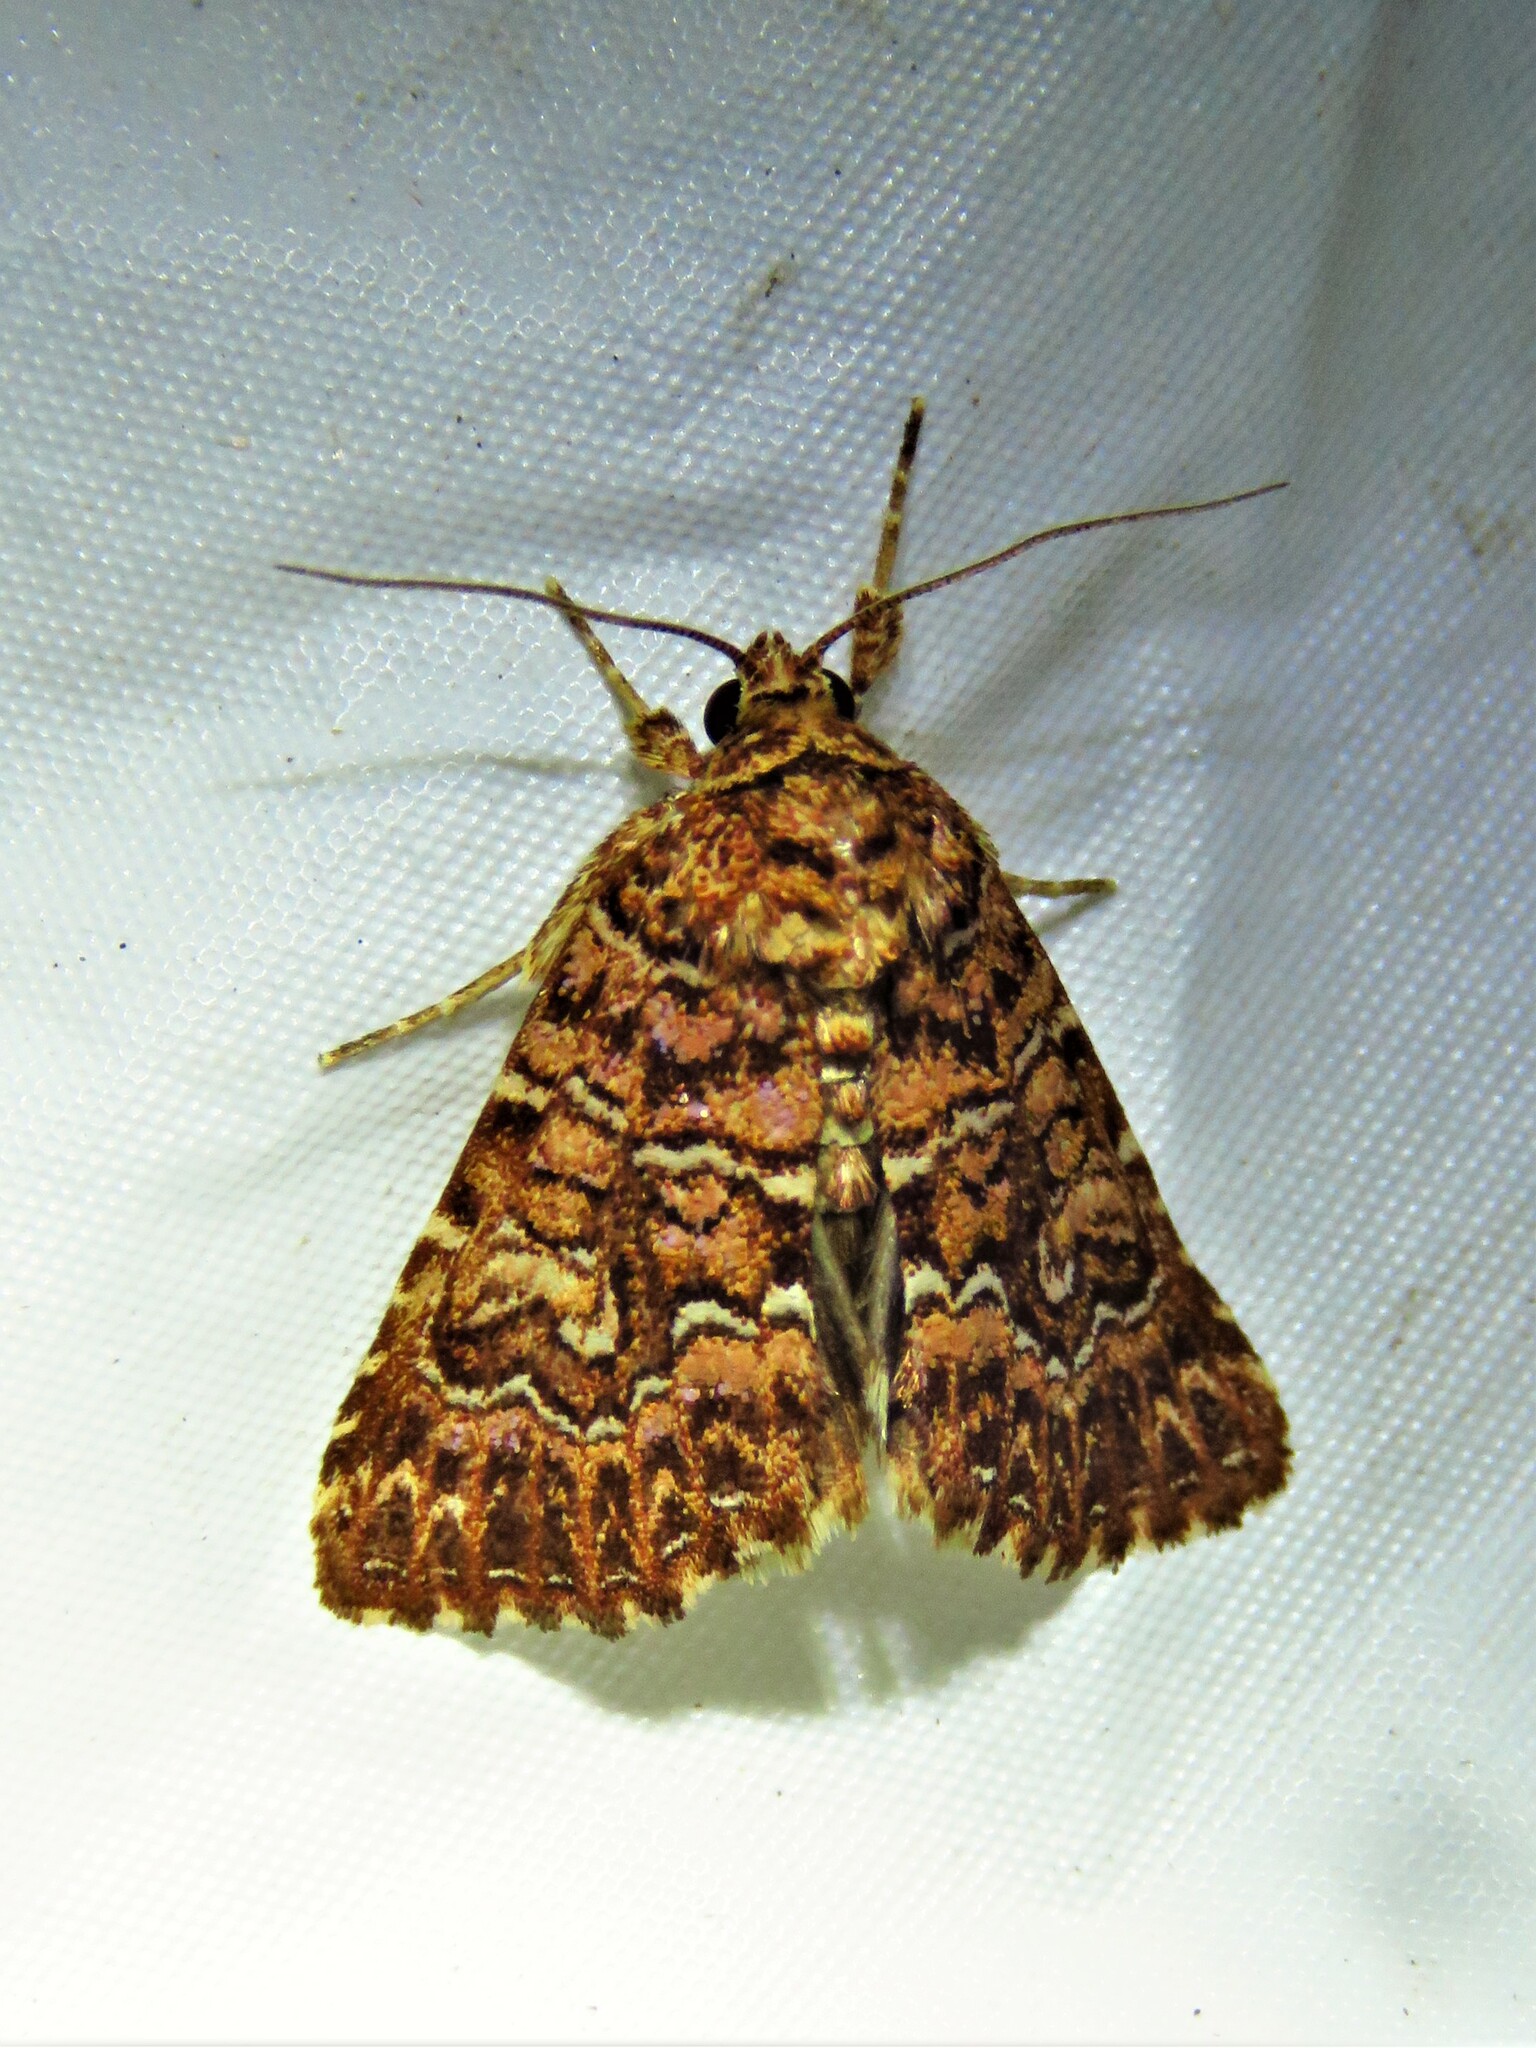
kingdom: Animalia
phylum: Arthropoda
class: Insecta
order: Lepidoptera
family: Noctuidae
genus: Callopistria
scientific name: Callopistria granitosa
